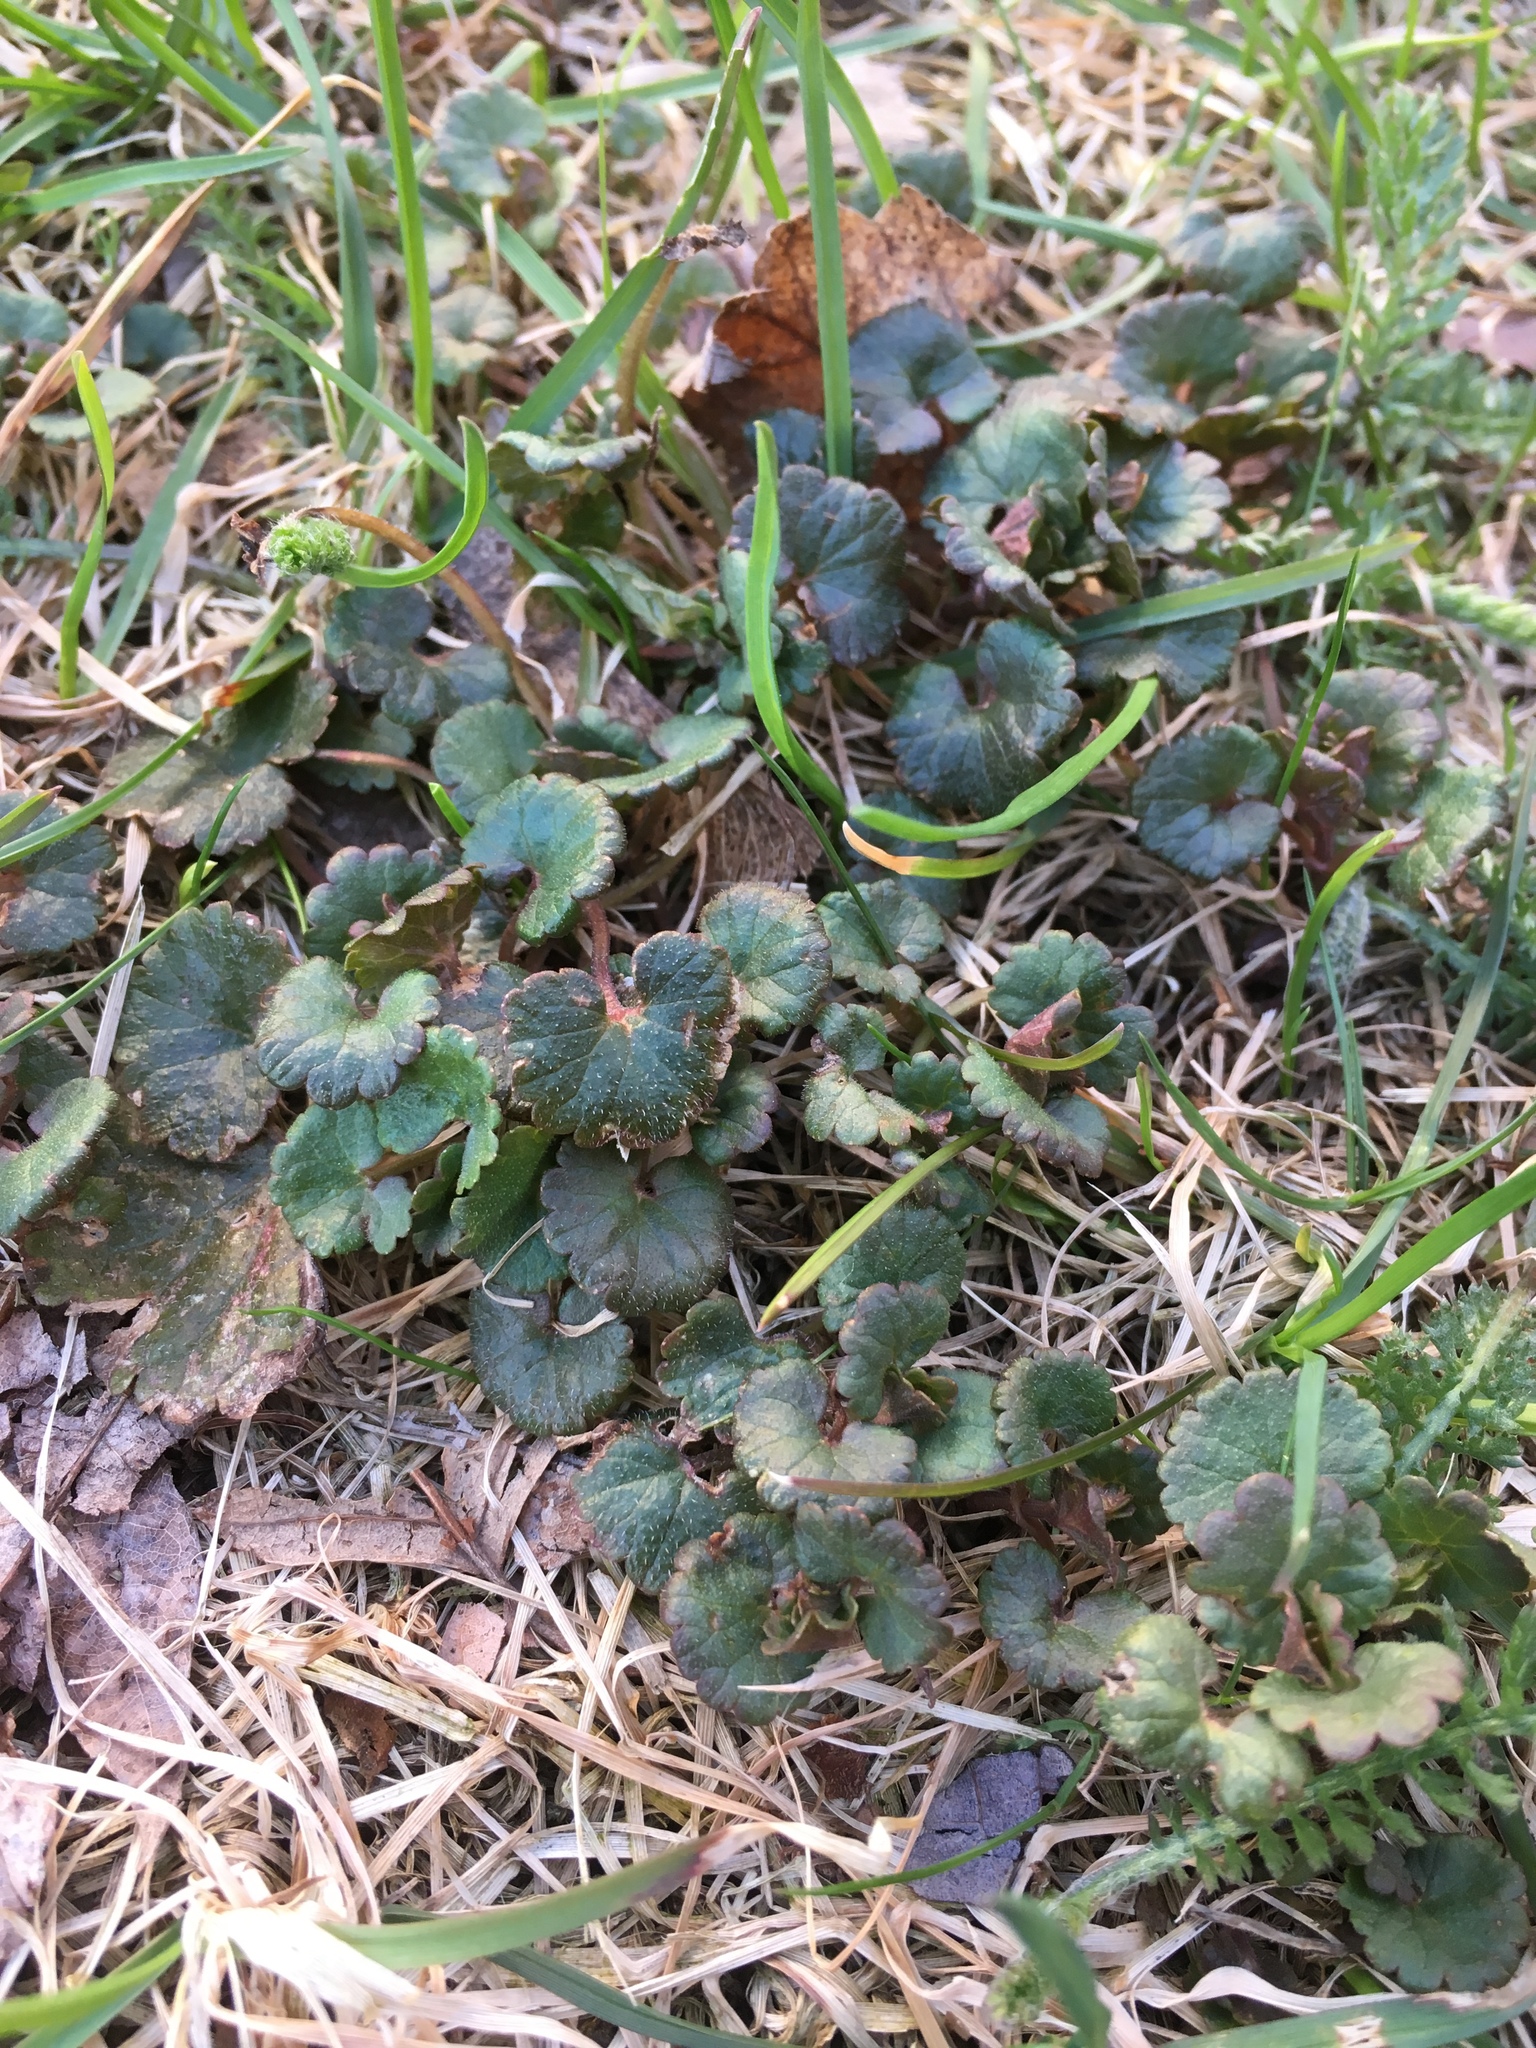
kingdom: Plantae
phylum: Tracheophyta
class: Magnoliopsida
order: Lamiales
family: Lamiaceae
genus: Glechoma
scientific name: Glechoma hederacea
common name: Ground ivy
